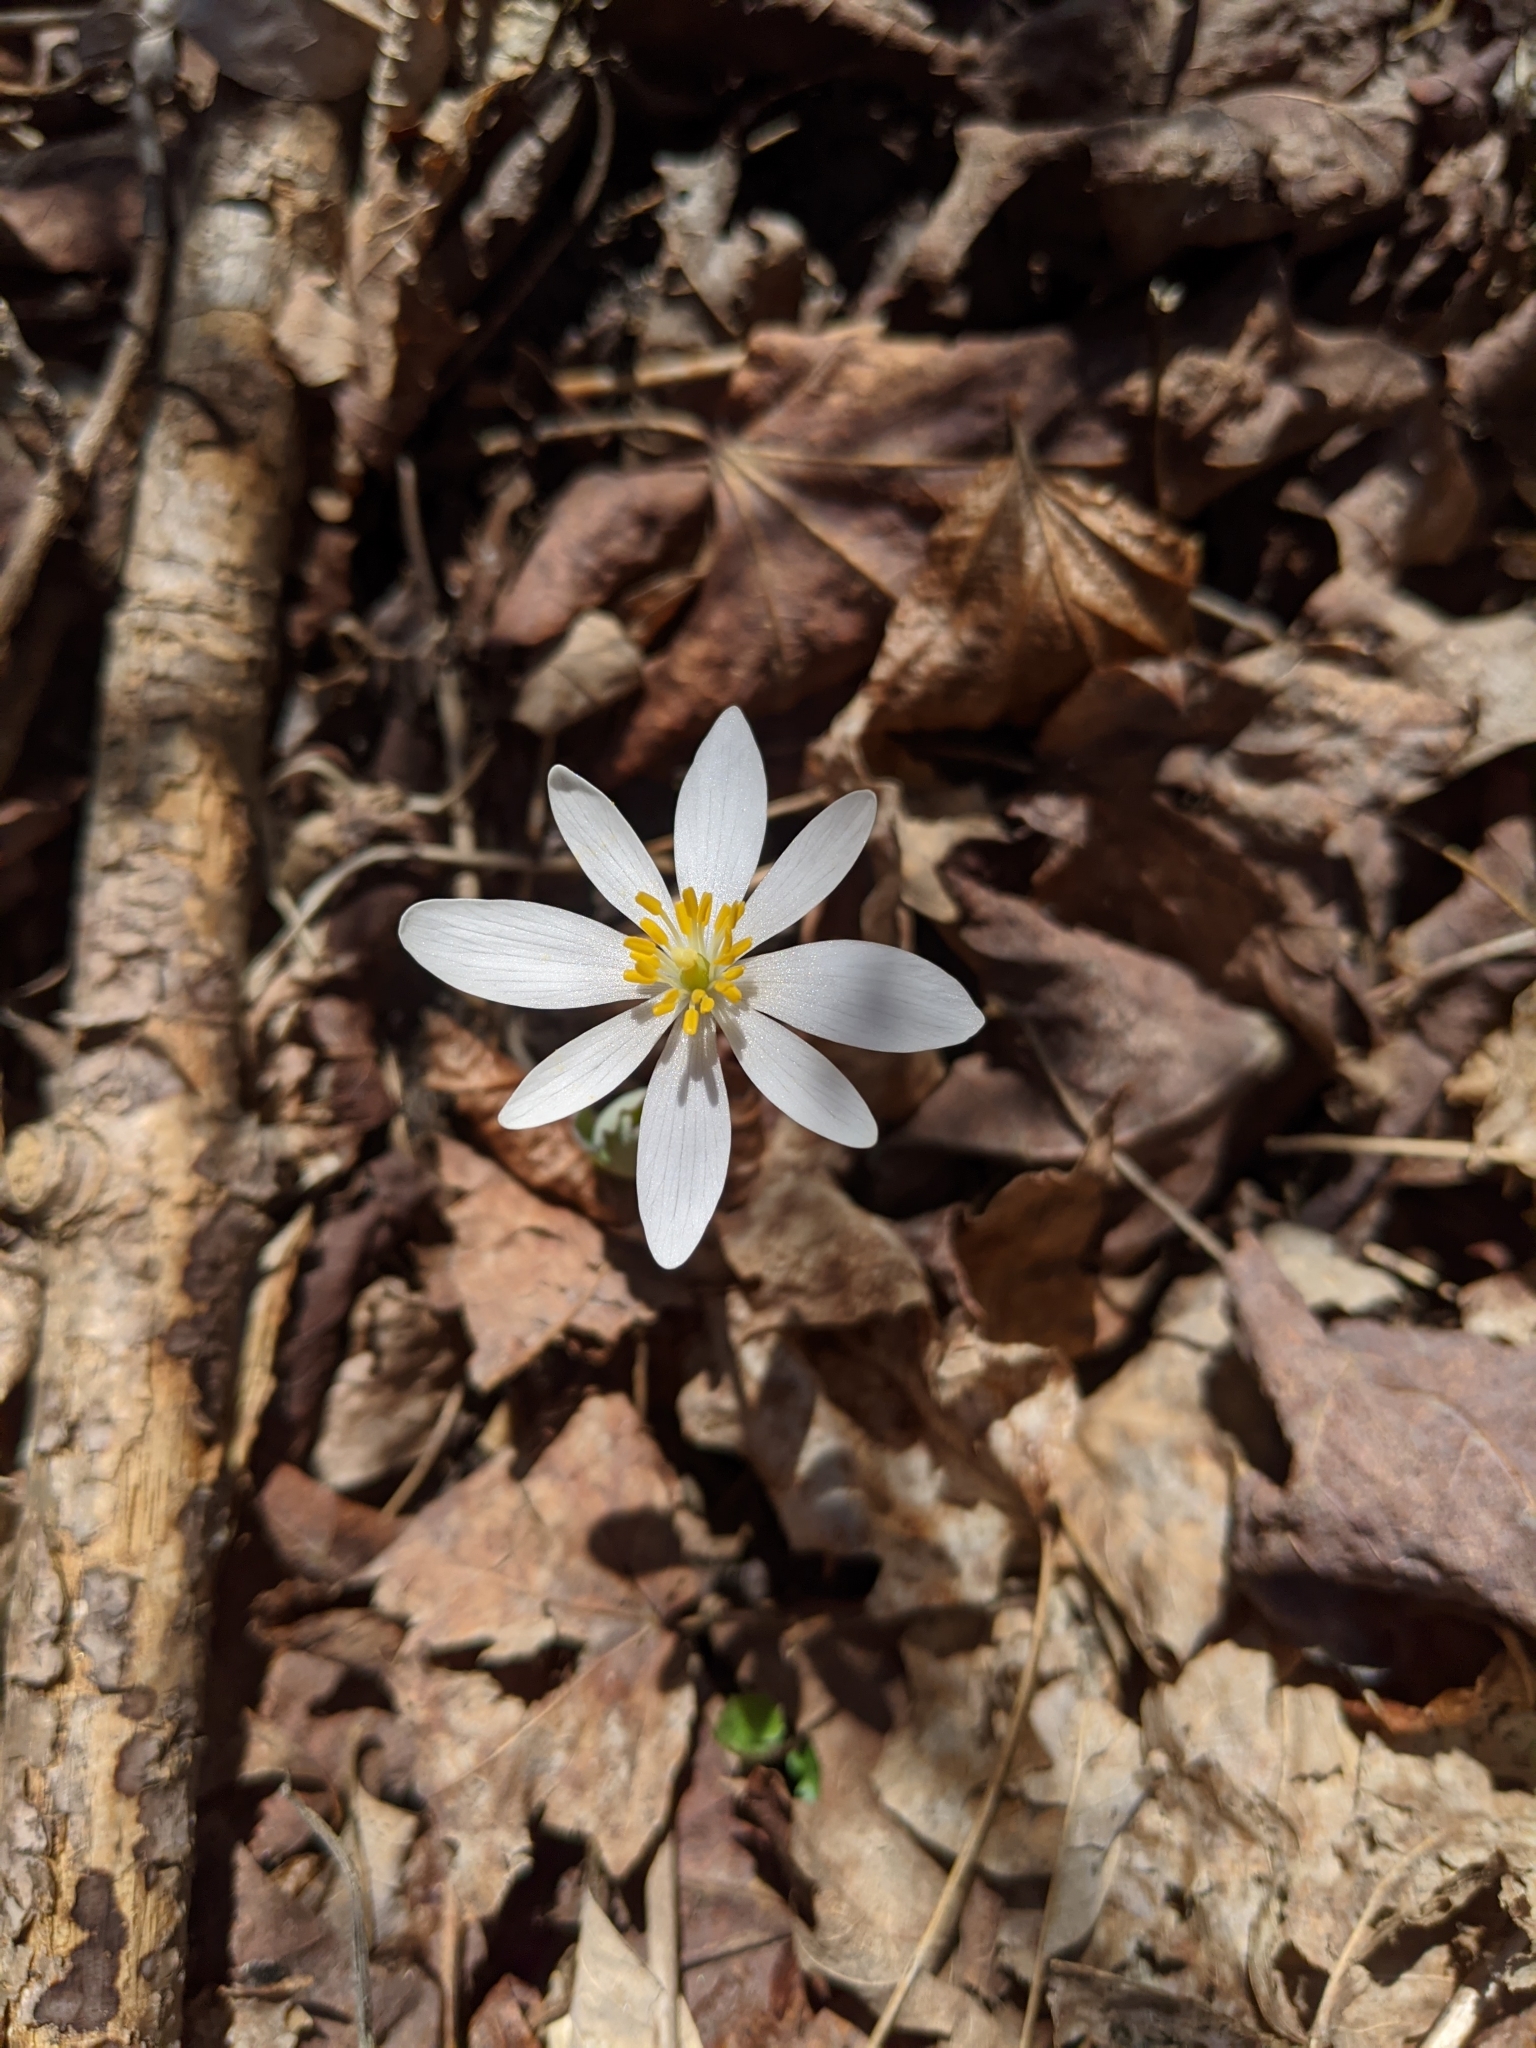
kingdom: Plantae
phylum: Tracheophyta
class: Magnoliopsida
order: Ranunculales
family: Papaveraceae
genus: Sanguinaria
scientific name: Sanguinaria canadensis
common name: Bloodroot
